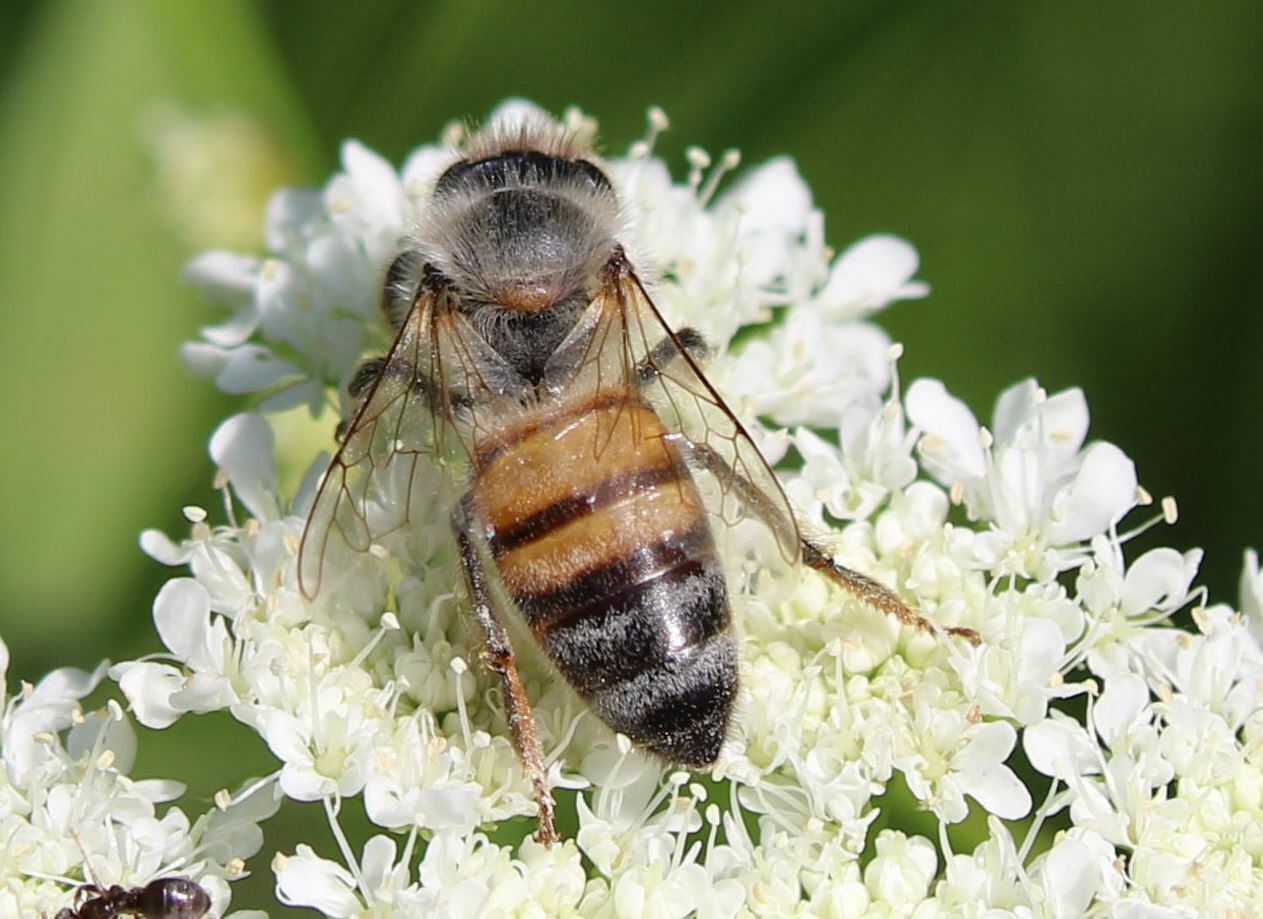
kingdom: Animalia
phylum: Arthropoda
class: Insecta
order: Hymenoptera
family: Apidae
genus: Apis
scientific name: Apis mellifera
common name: Honey bee
